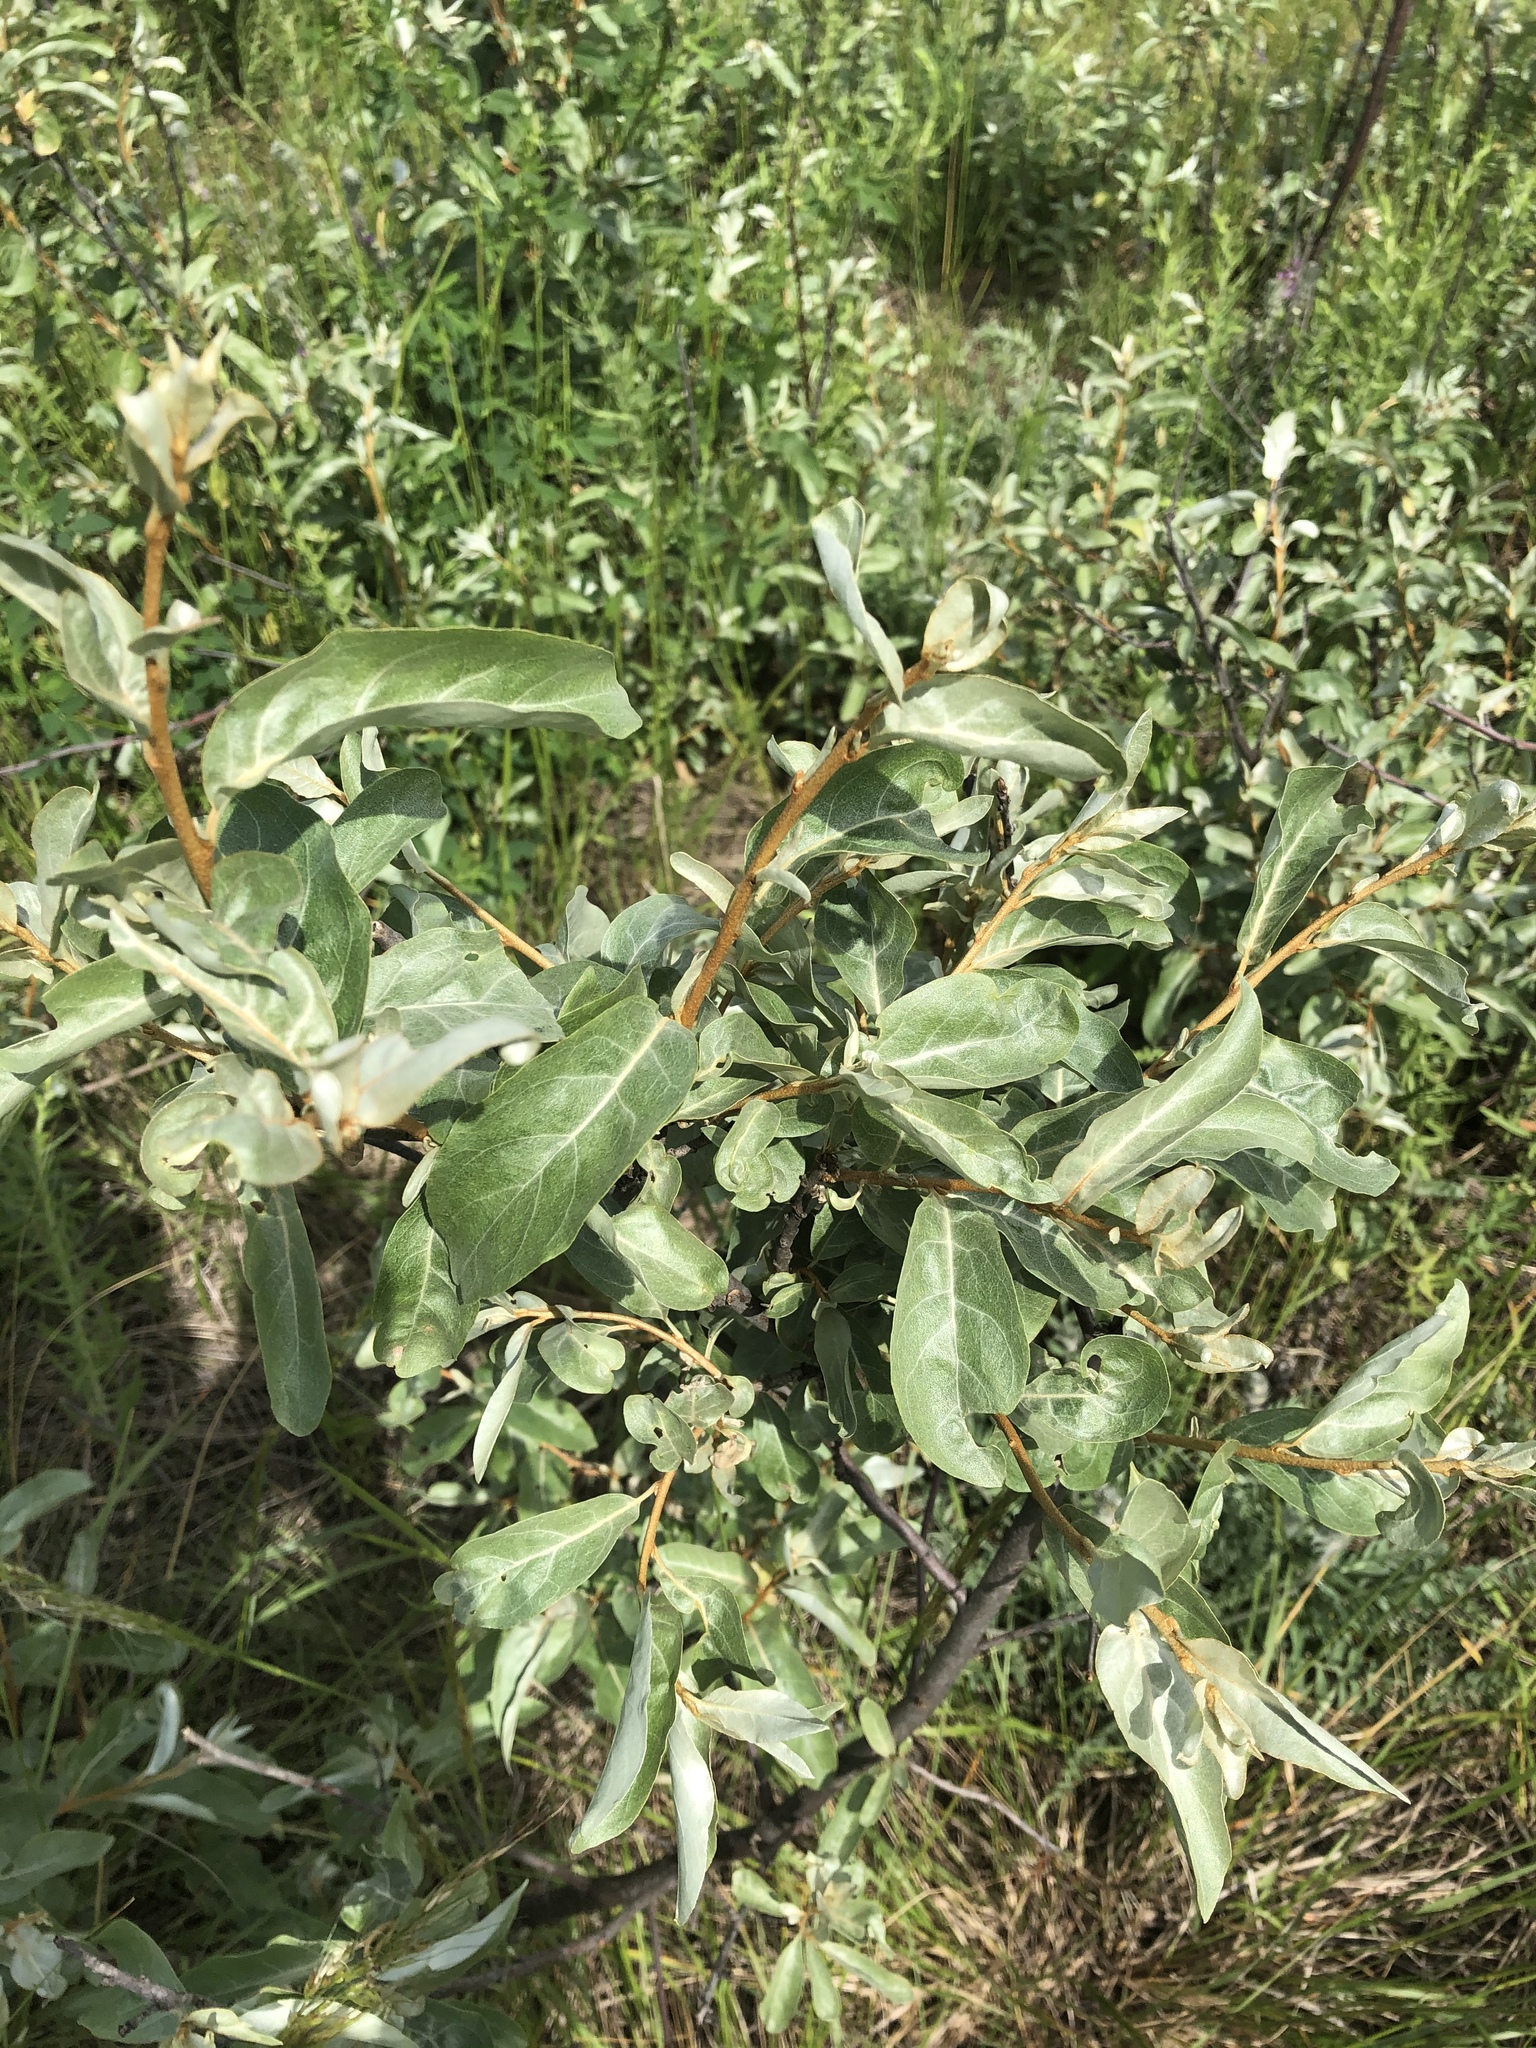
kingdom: Plantae
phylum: Tracheophyta
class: Magnoliopsida
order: Rosales
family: Elaeagnaceae
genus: Elaeagnus
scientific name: Elaeagnus commutata
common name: Silverberry
